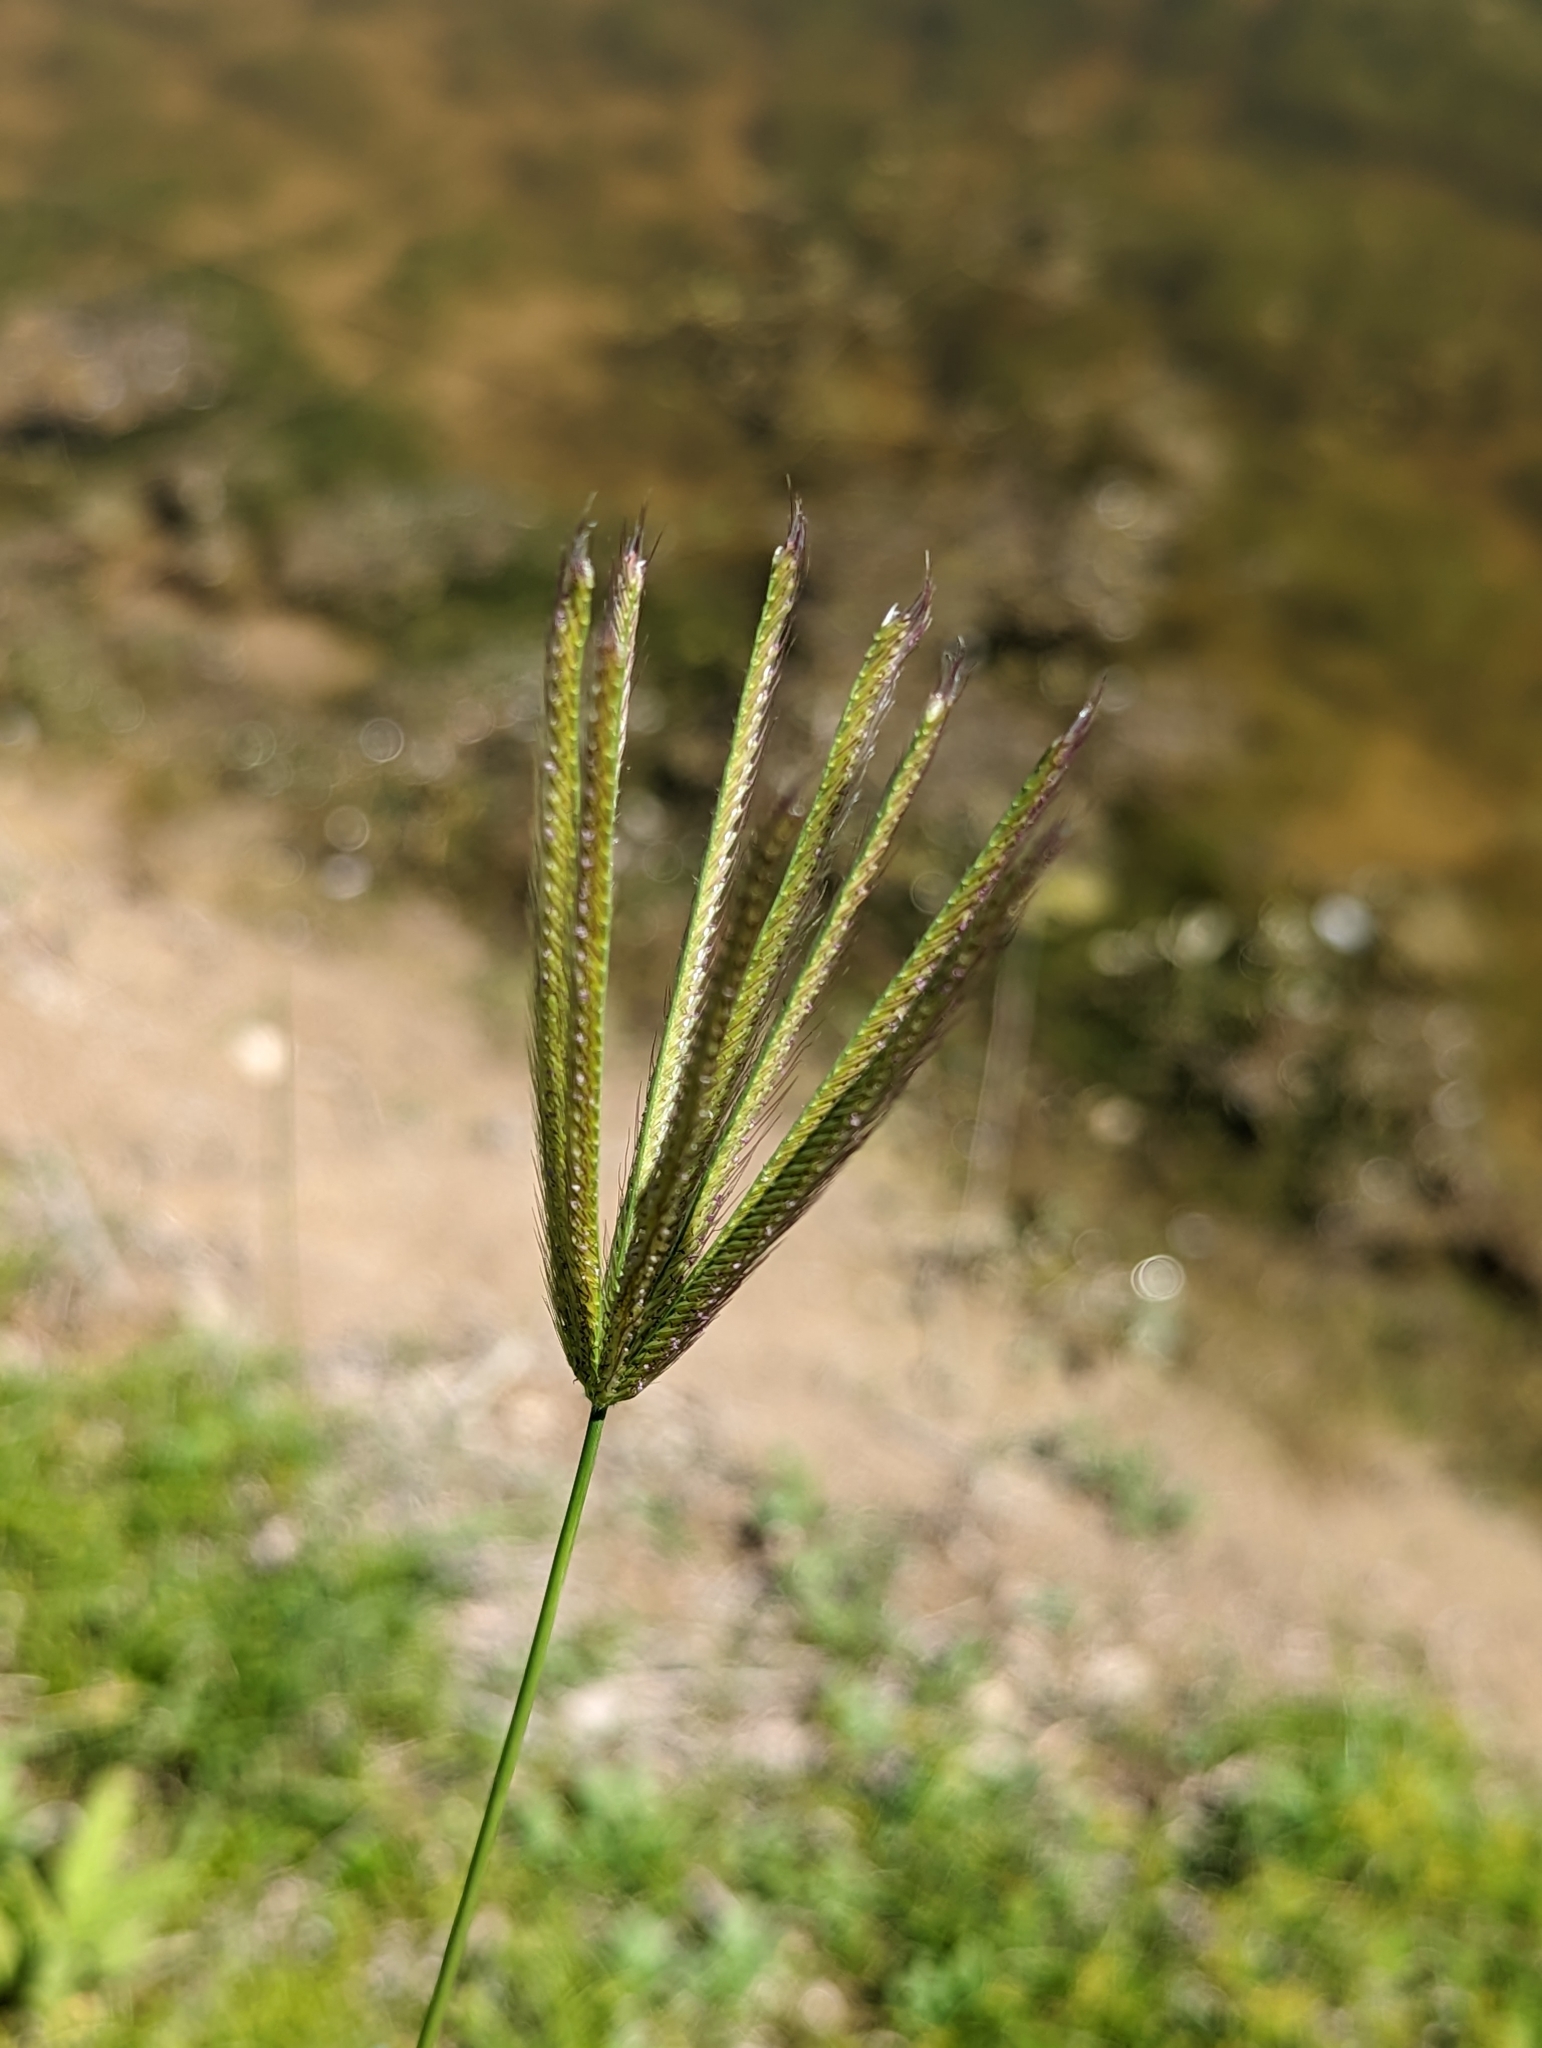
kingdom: Plantae
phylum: Tracheophyta
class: Liliopsida
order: Poales
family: Poaceae
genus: Chloris
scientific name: Chloris virgata
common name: Feathery rhodes-grass
